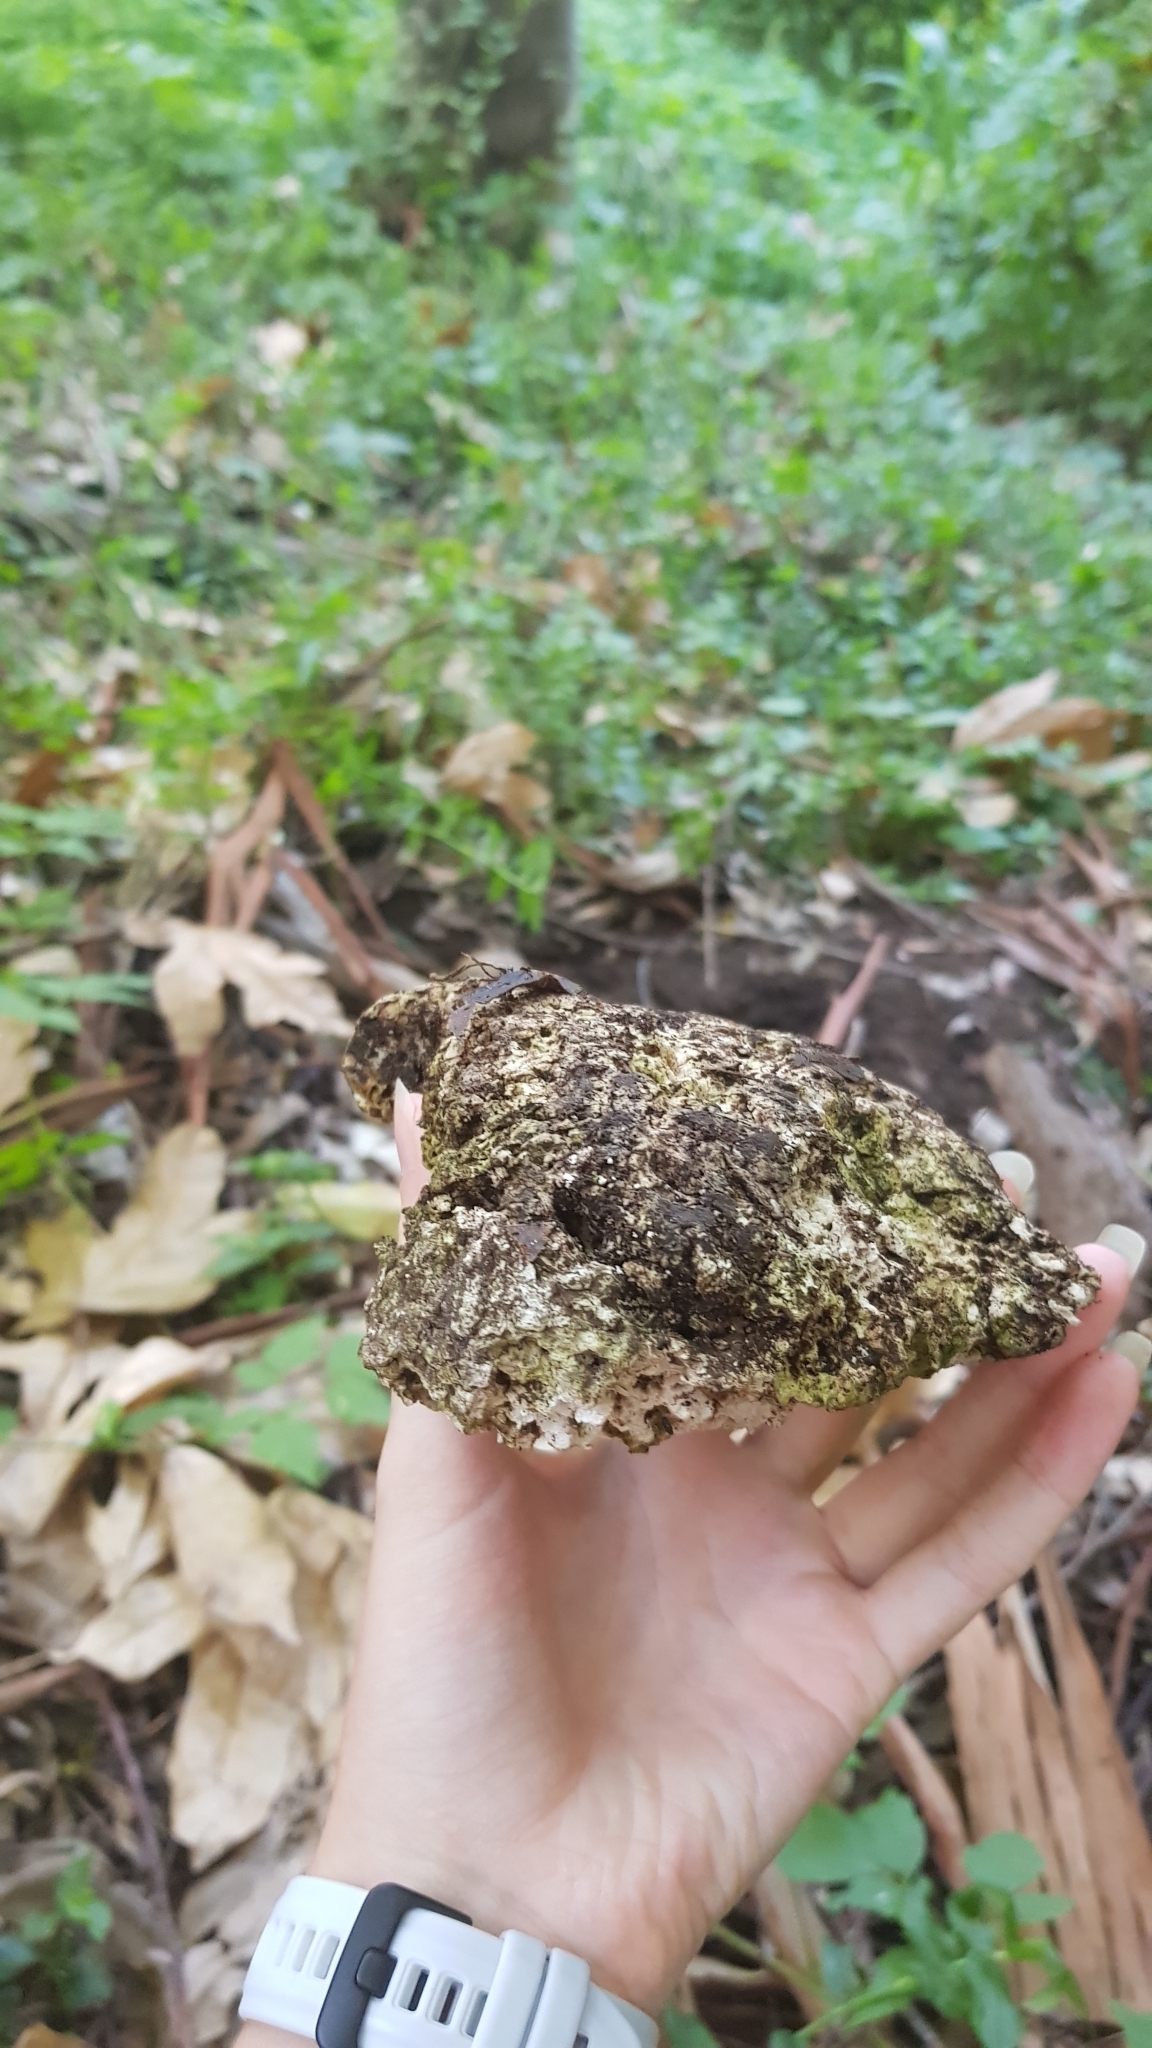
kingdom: Fungi
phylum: Basidiomycota
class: Agaricomycetes
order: Polyporales
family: Laetiporaceae
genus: Laetiporus
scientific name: Laetiporus portentosus
